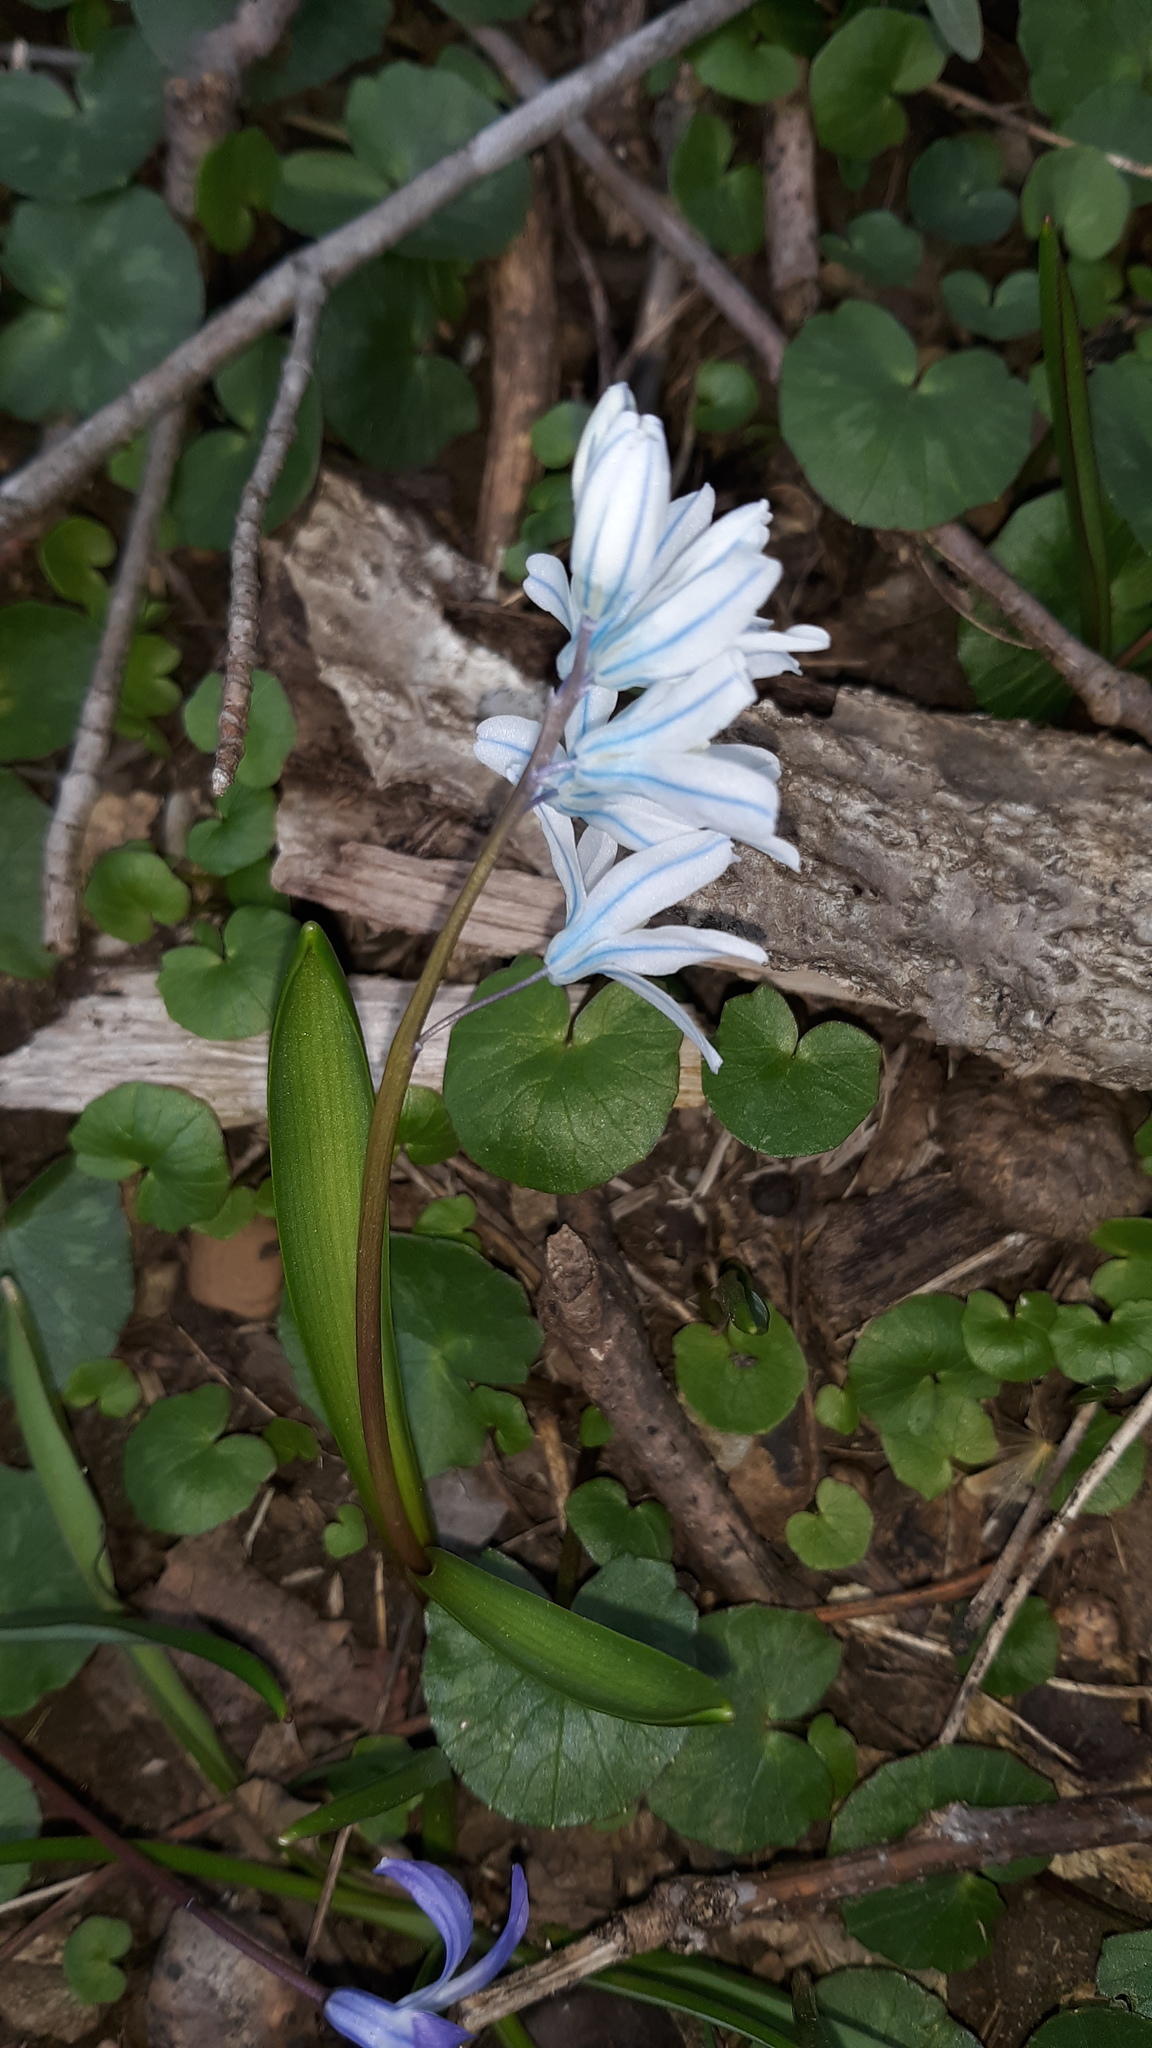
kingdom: Plantae
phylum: Tracheophyta
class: Liliopsida
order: Asparagales
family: Asparagaceae
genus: Puschkinia
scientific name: Puschkinia scilloides
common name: Striped squill
